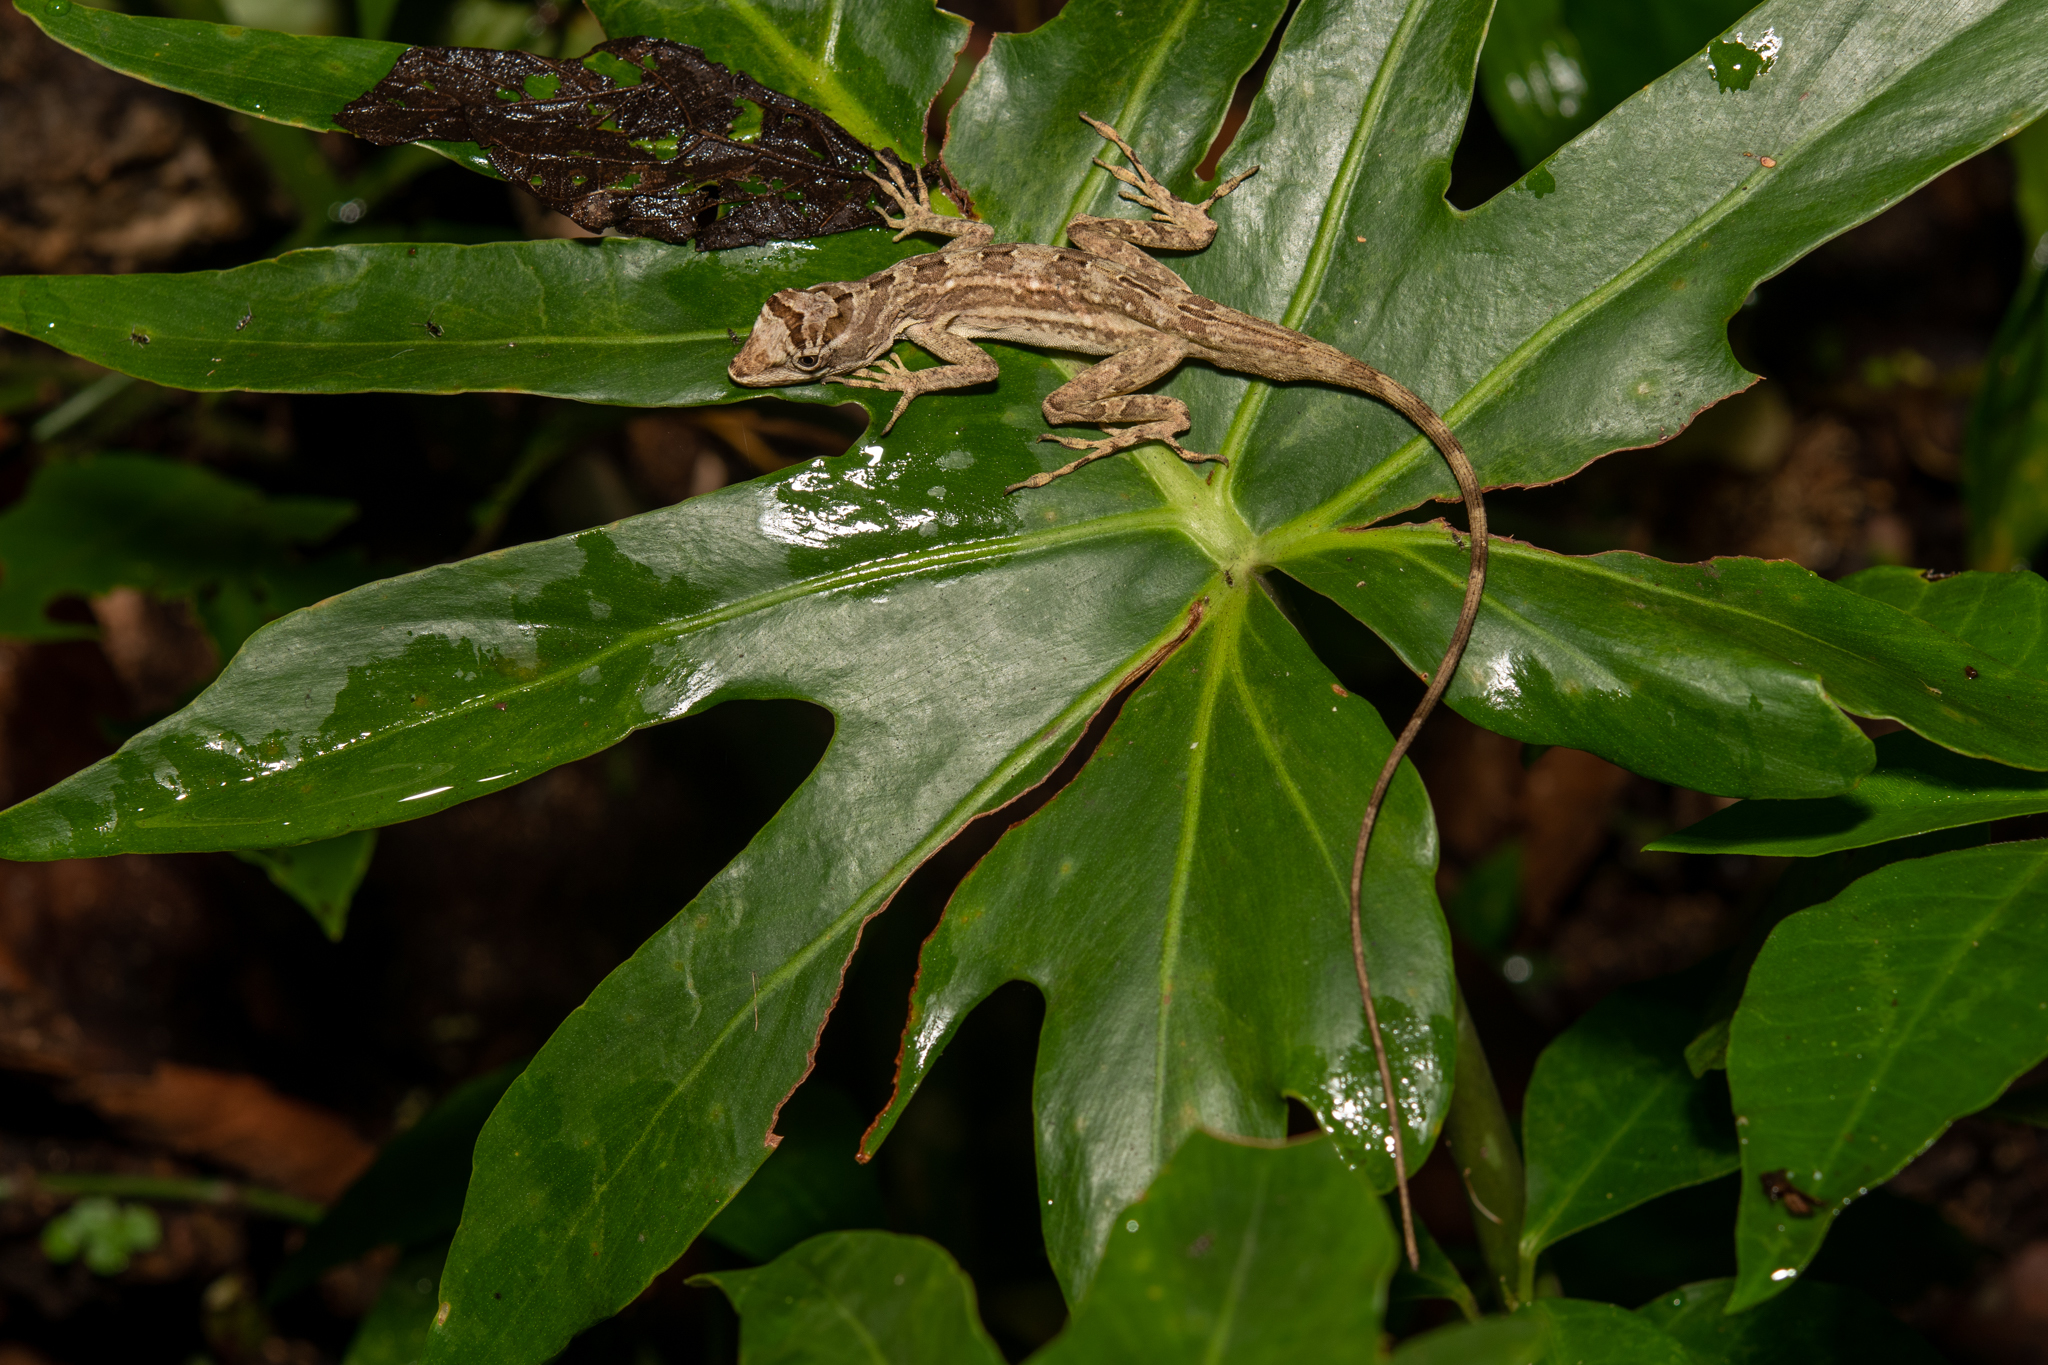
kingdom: Animalia
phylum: Chordata
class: Squamata
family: Dactyloidae
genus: Anolis
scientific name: Anolis lemurinus
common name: Ghost anole
